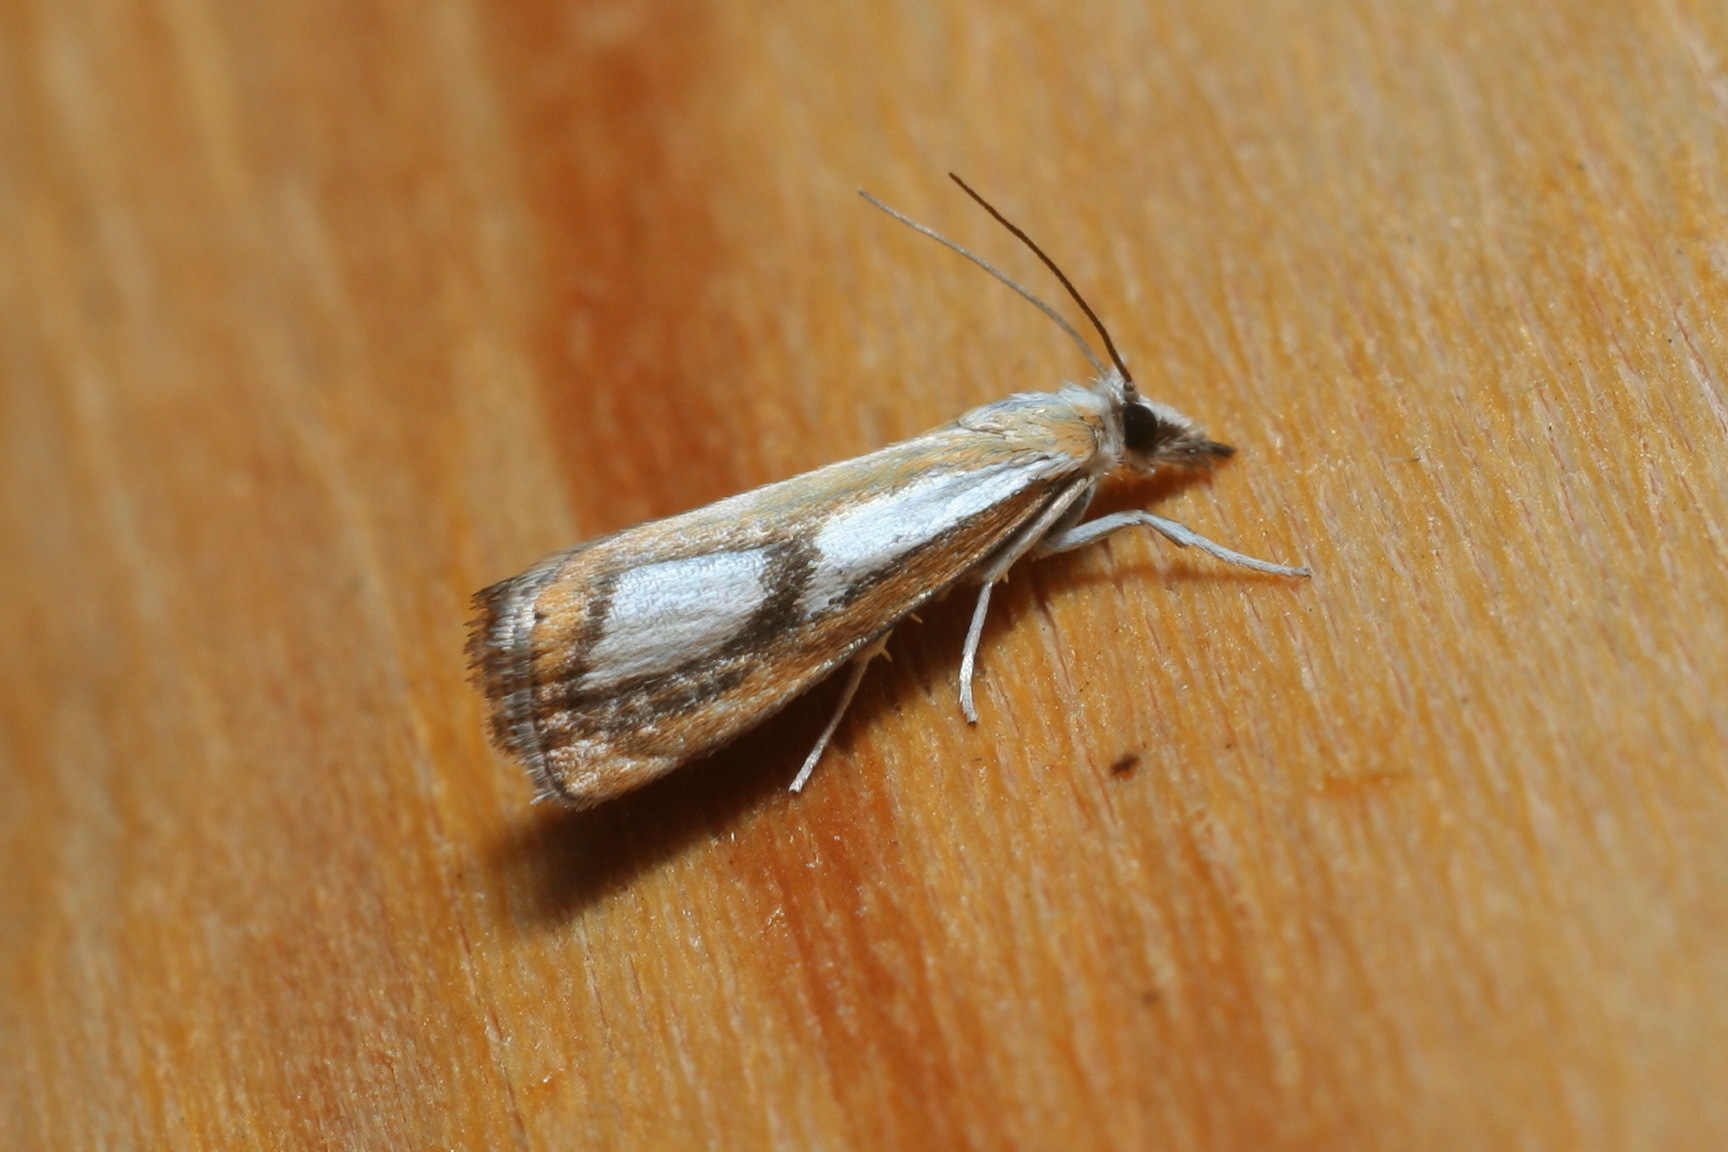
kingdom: Animalia
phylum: Arthropoda
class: Insecta
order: Lepidoptera
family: Crambidae
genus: Catoptria
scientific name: Catoptria permiaca
